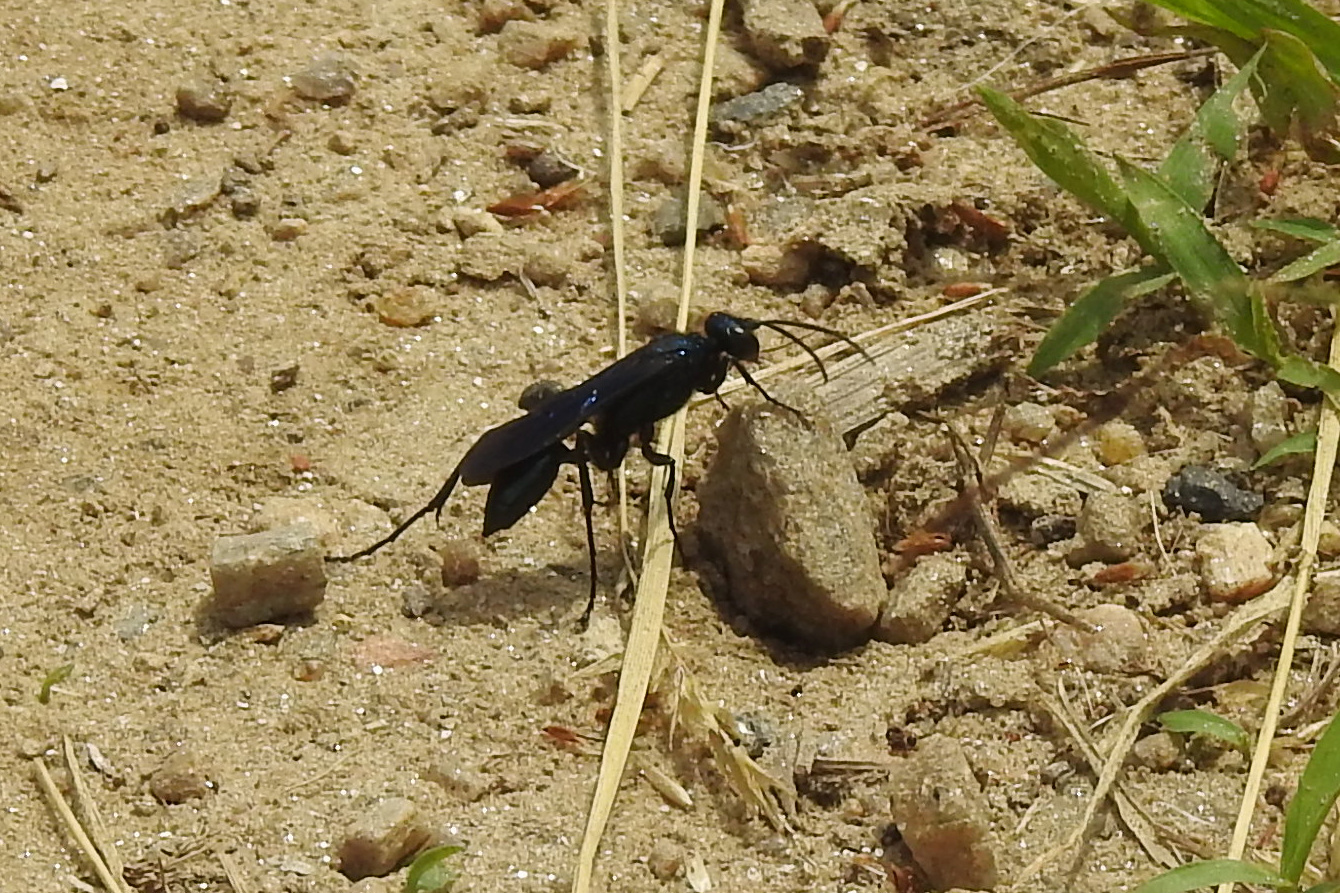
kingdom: Animalia
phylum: Arthropoda
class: Insecta
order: Hymenoptera
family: Sphecidae
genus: Chalybion
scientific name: Chalybion californicum
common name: Mud dauber
